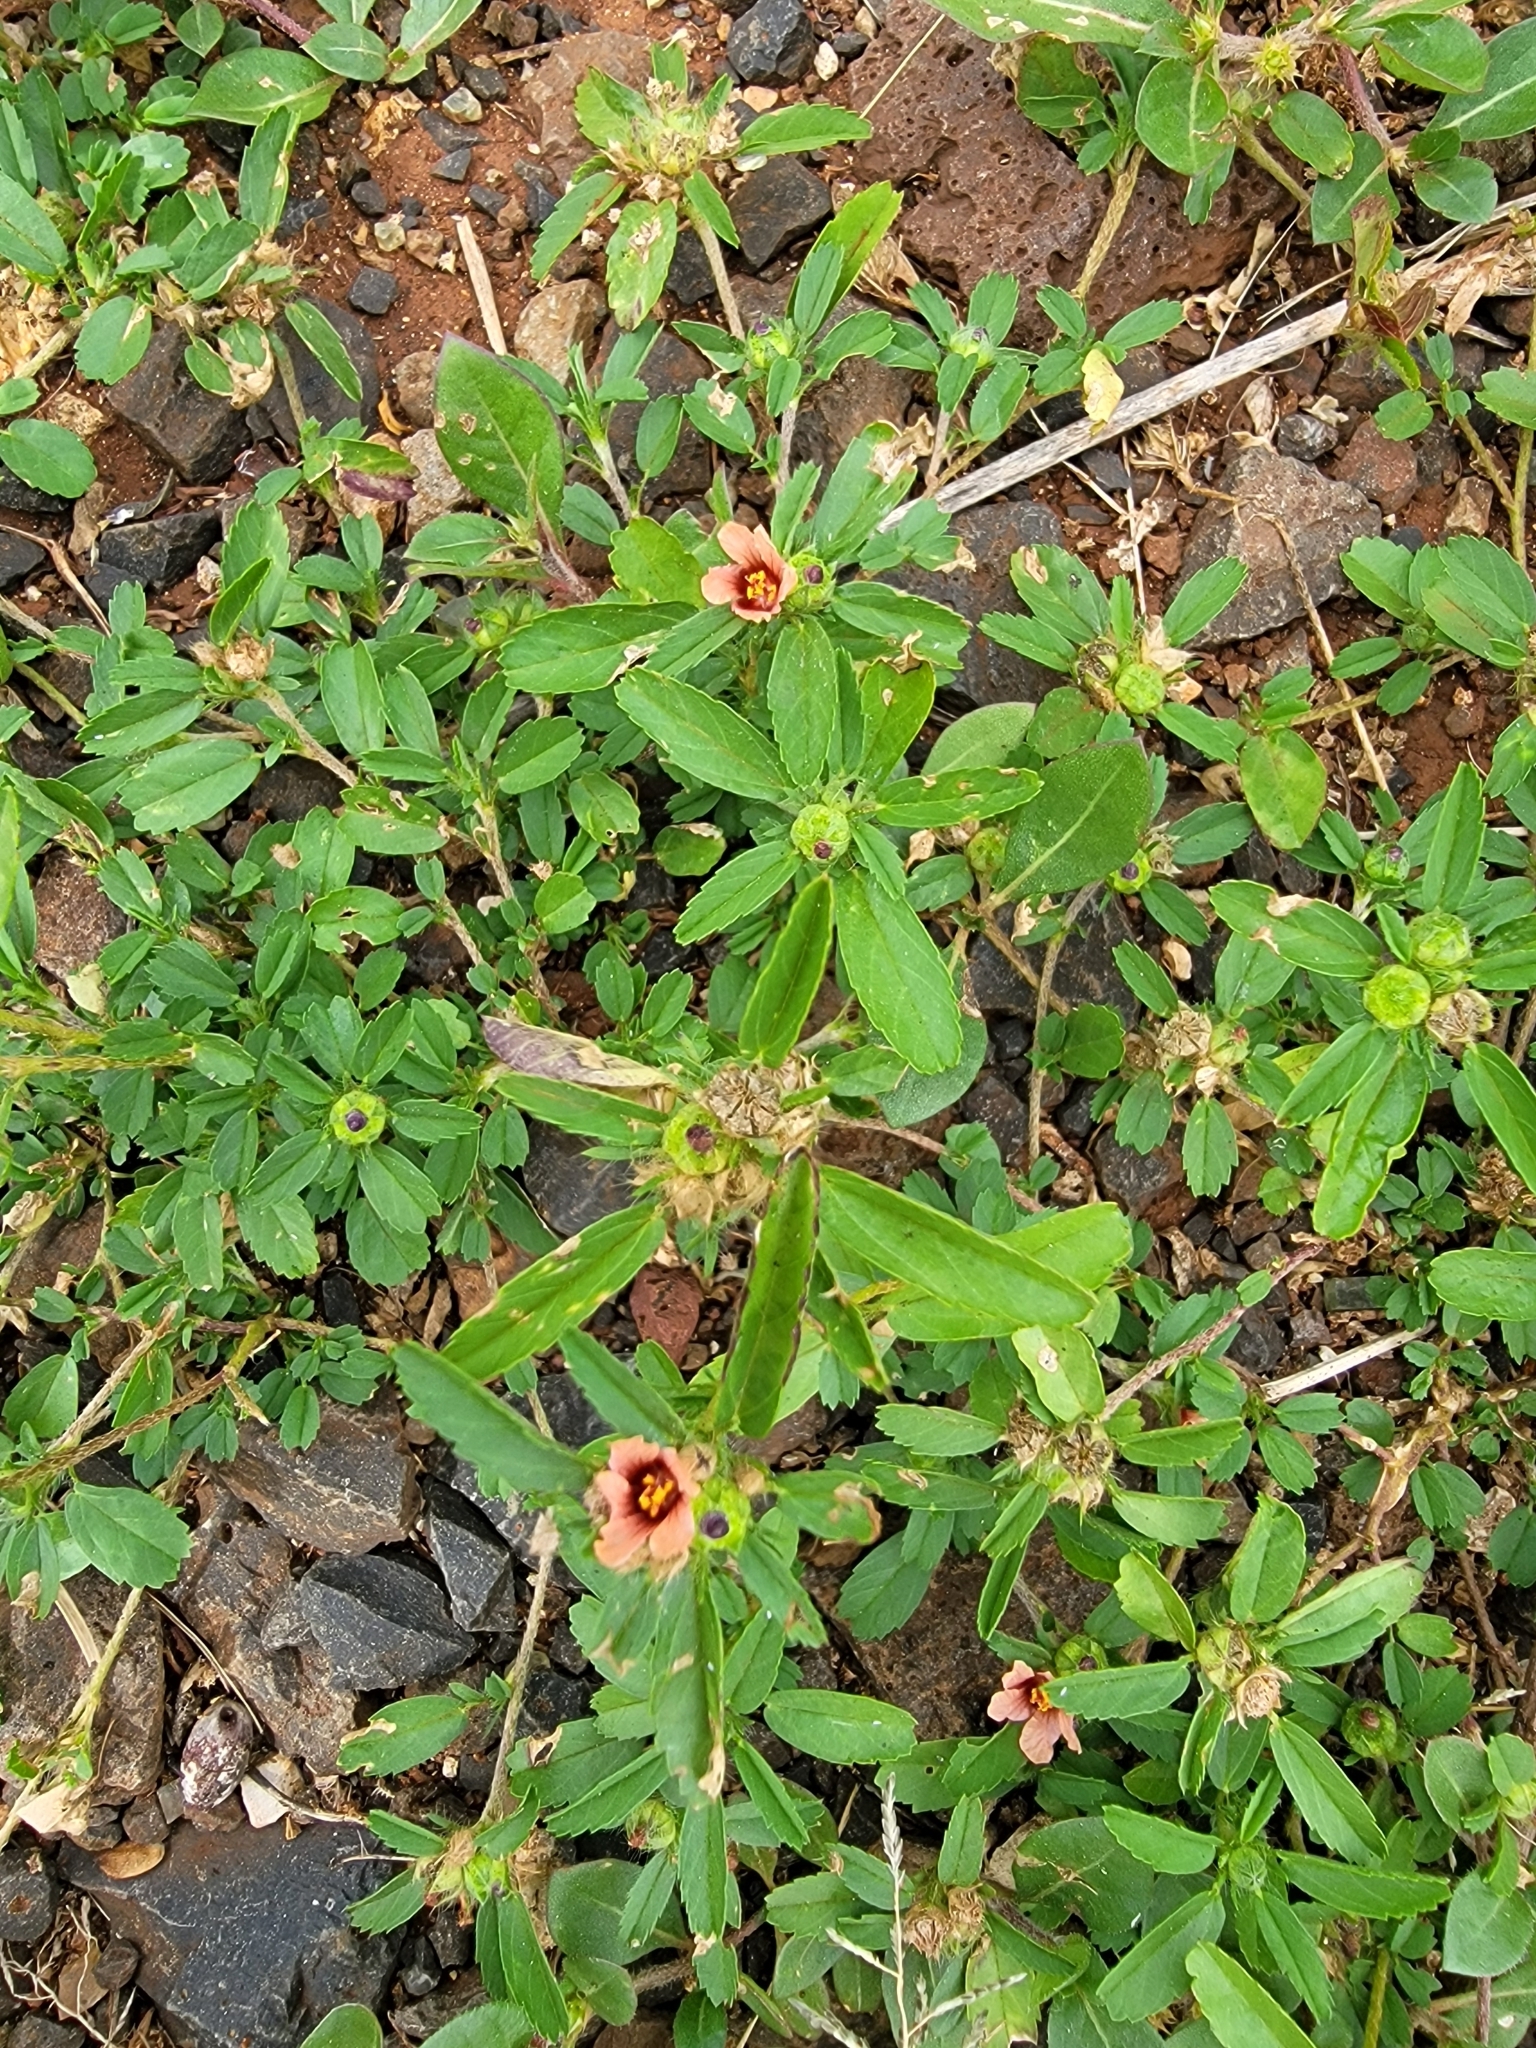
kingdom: Plantae
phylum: Tracheophyta
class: Magnoliopsida
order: Malvales
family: Malvaceae
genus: Sida
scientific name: Sida ciliaris
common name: Bracted fanpetals
